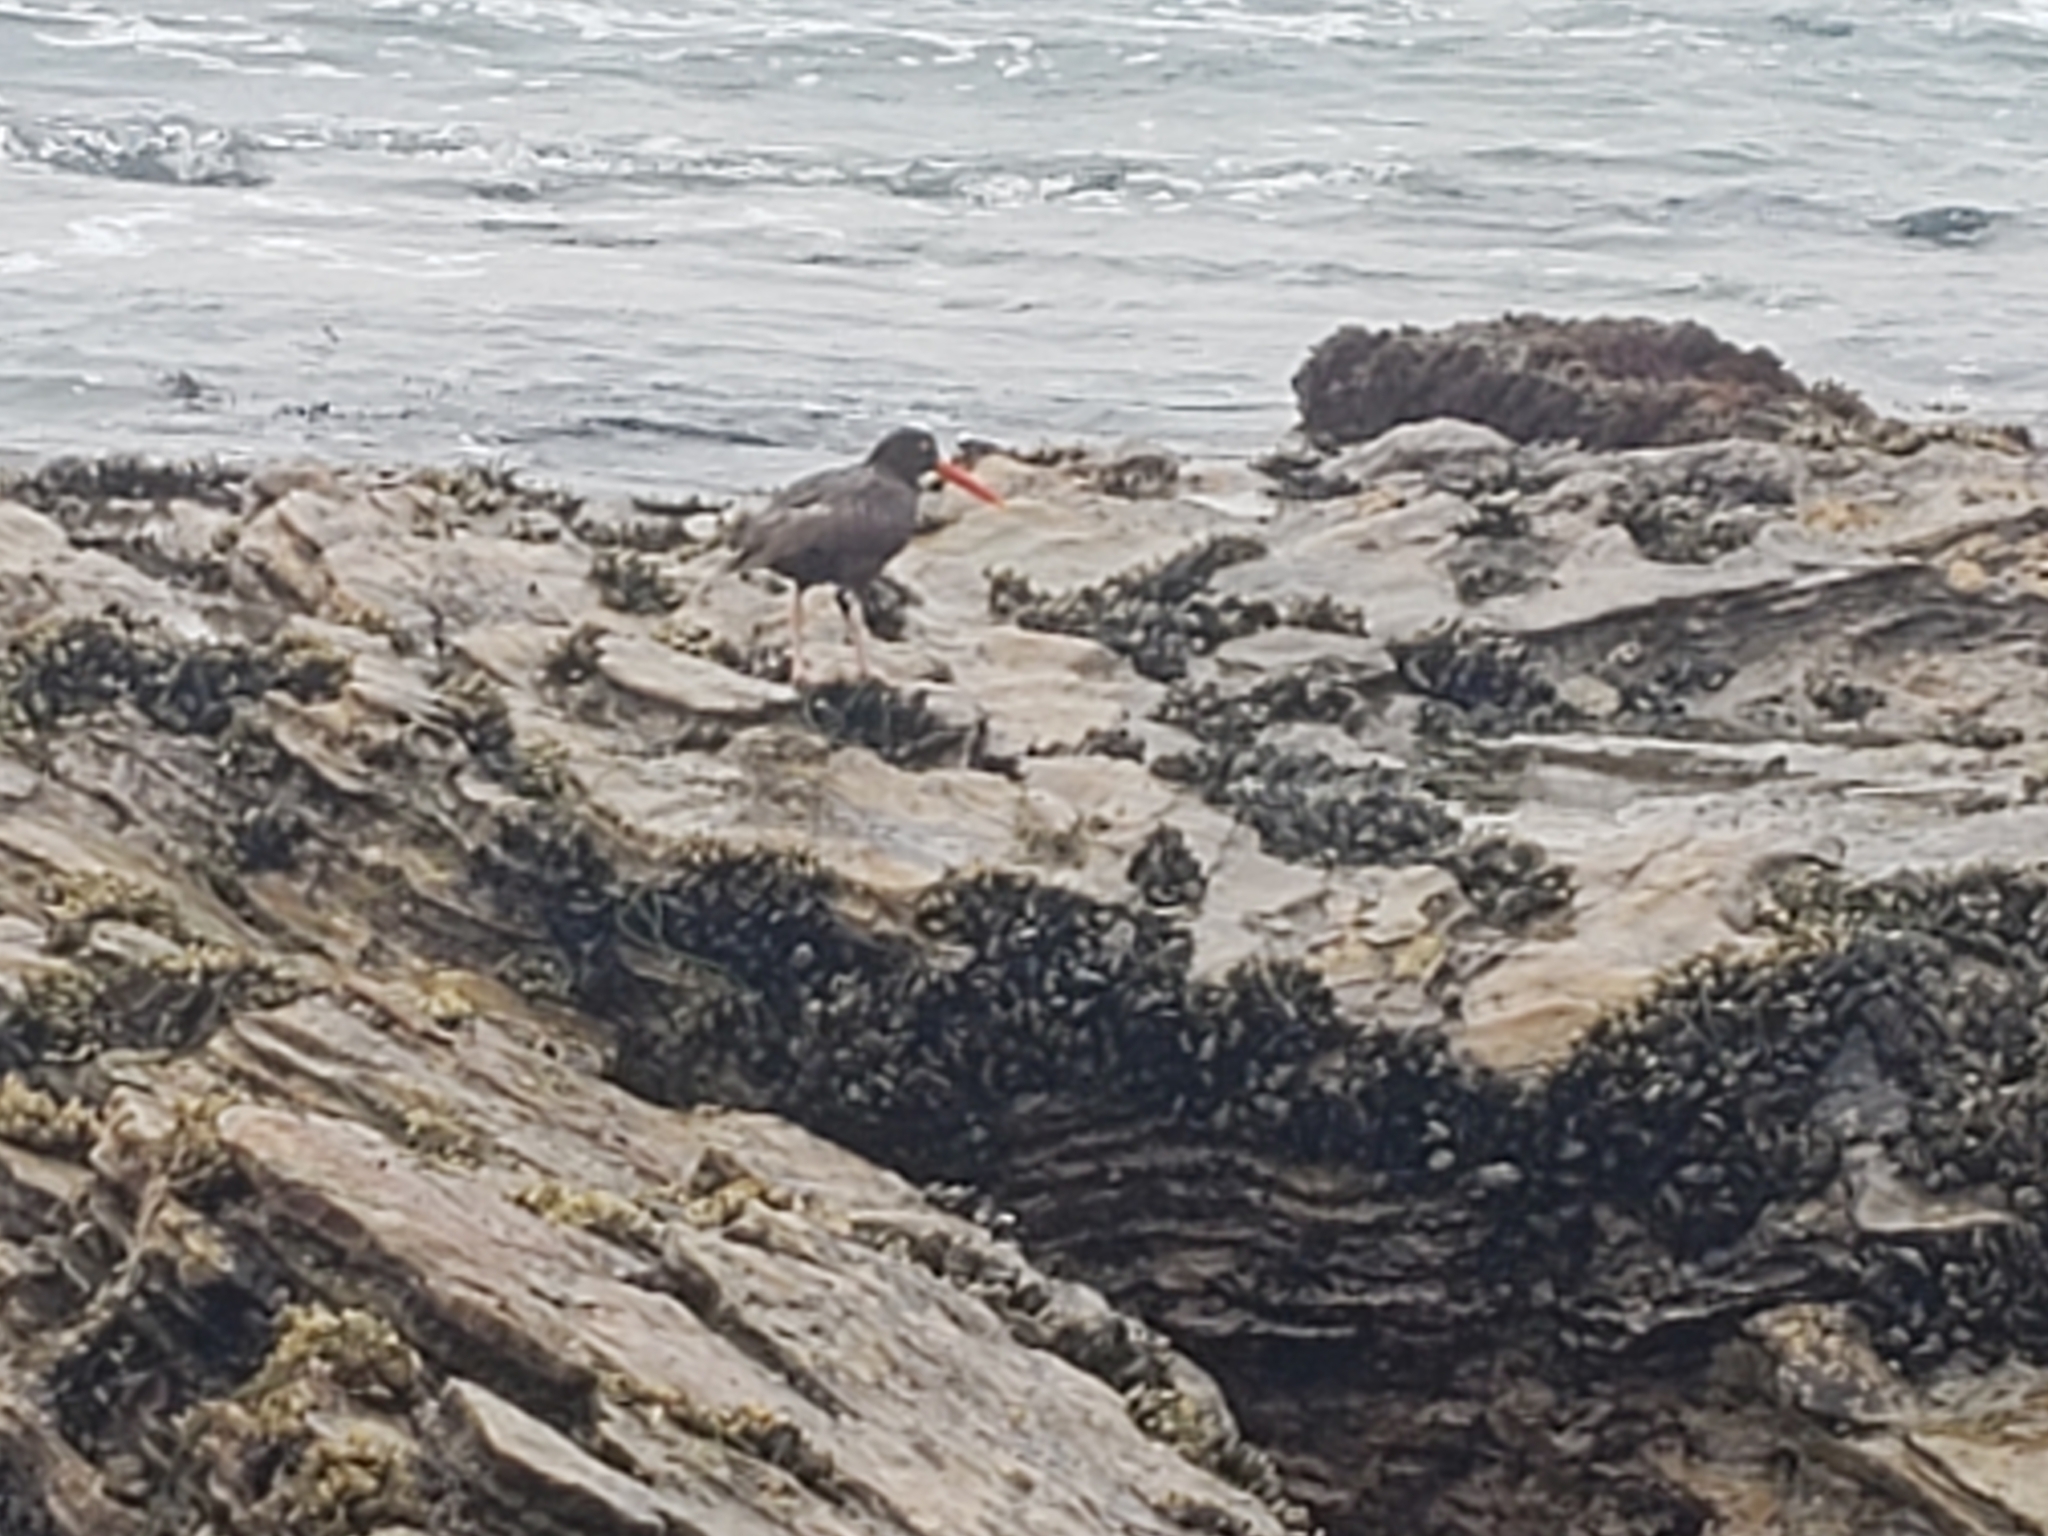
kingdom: Animalia
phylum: Chordata
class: Aves
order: Charadriiformes
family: Haematopodidae
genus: Haematopus
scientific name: Haematopus bachmani
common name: Black oystercatcher
